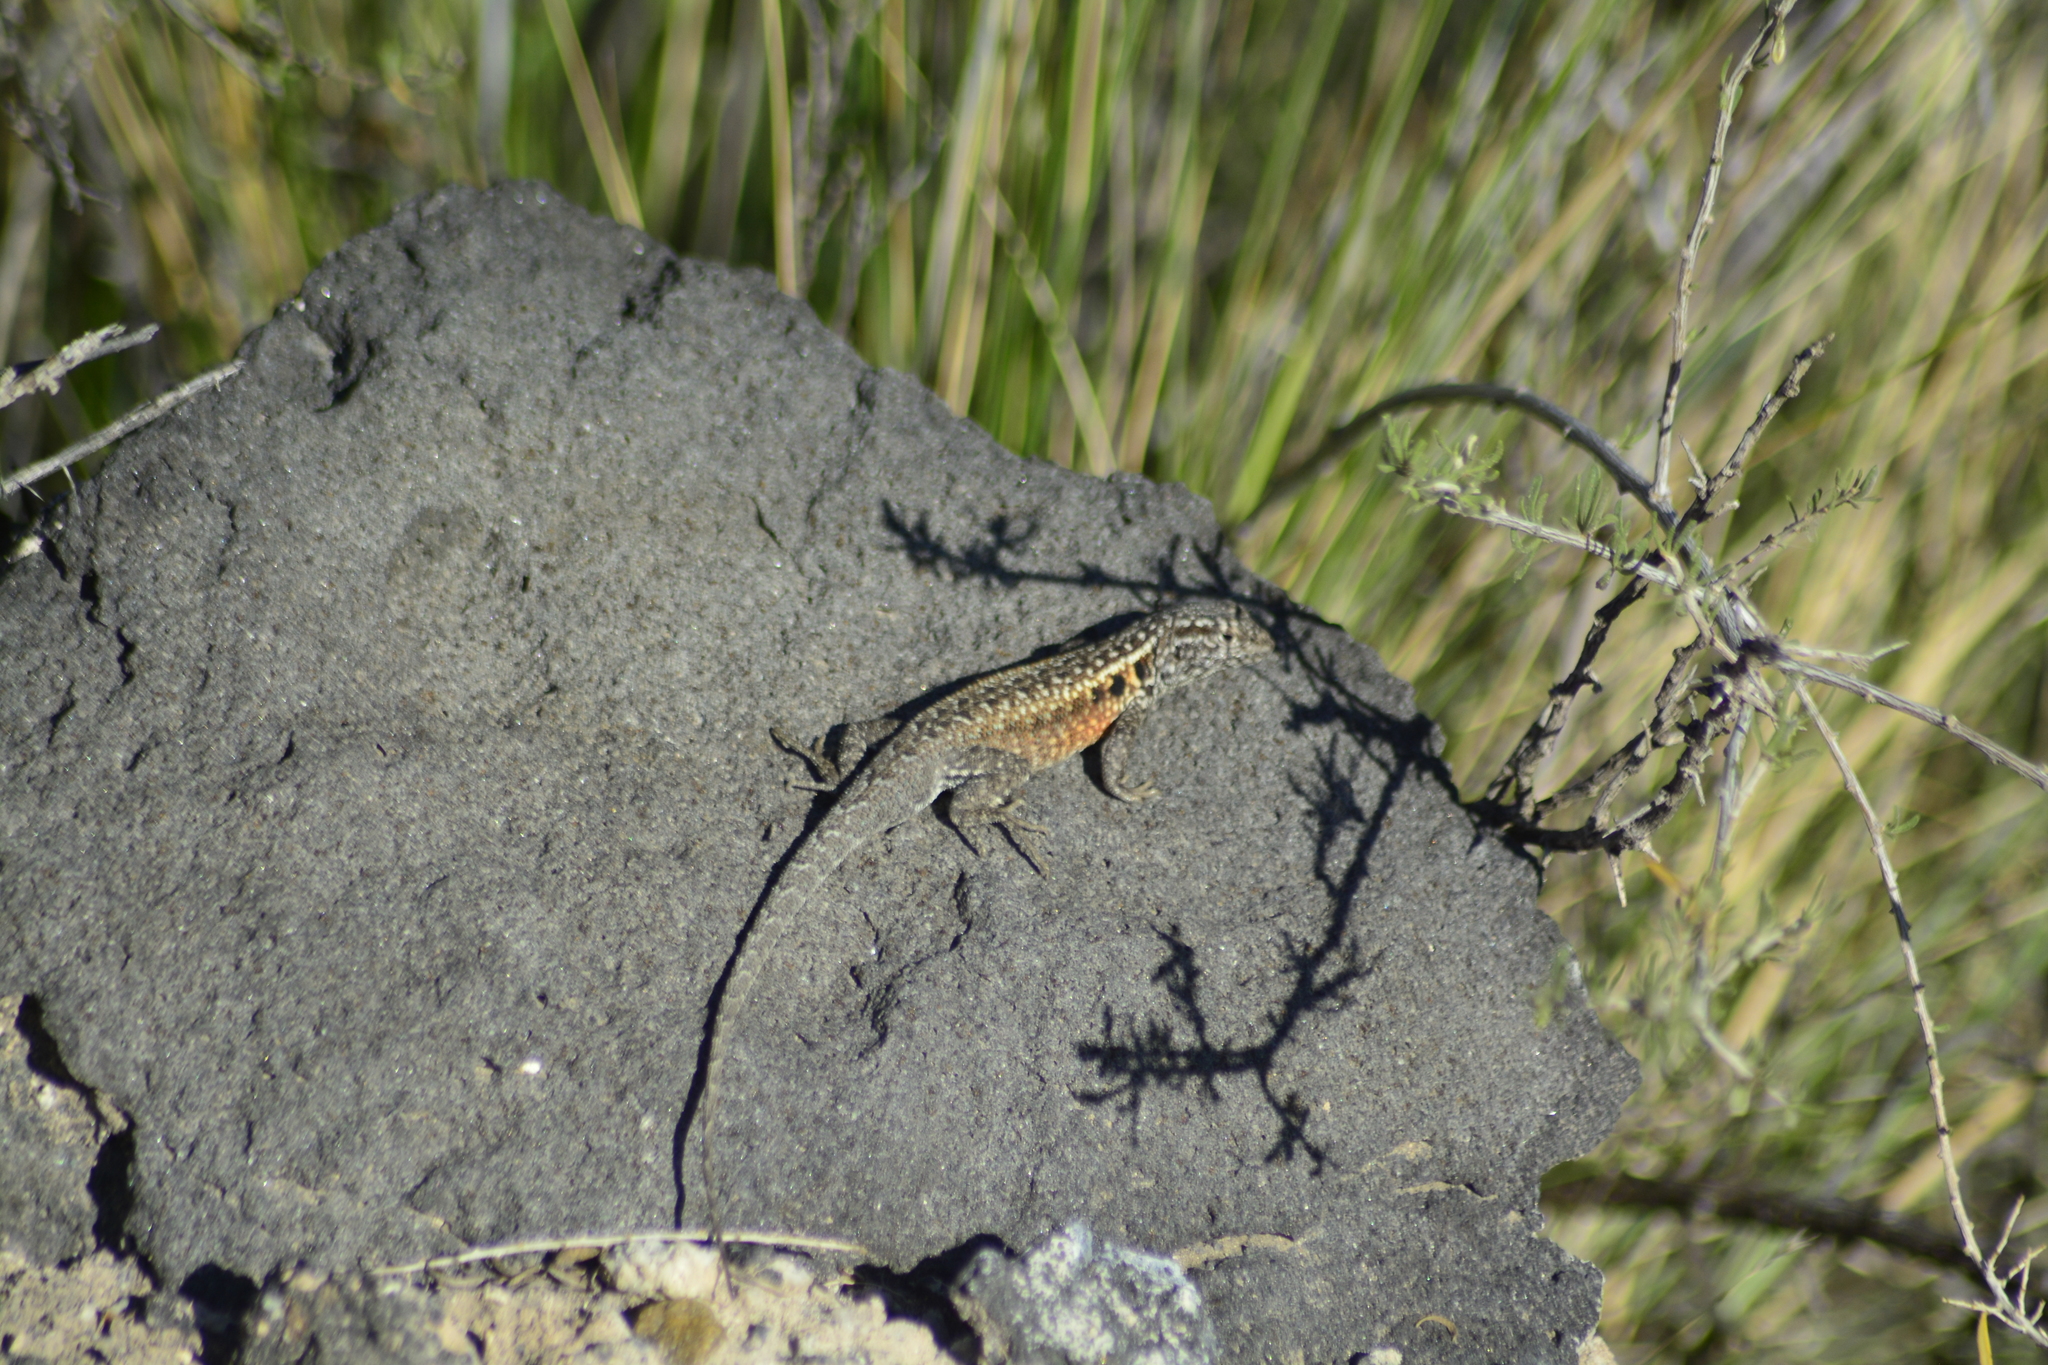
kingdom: Animalia
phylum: Chordata
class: Squamata
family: Liolaemidae
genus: Liolaemus
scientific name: Liolaemus darwinii
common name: Darwin's tree iguana
